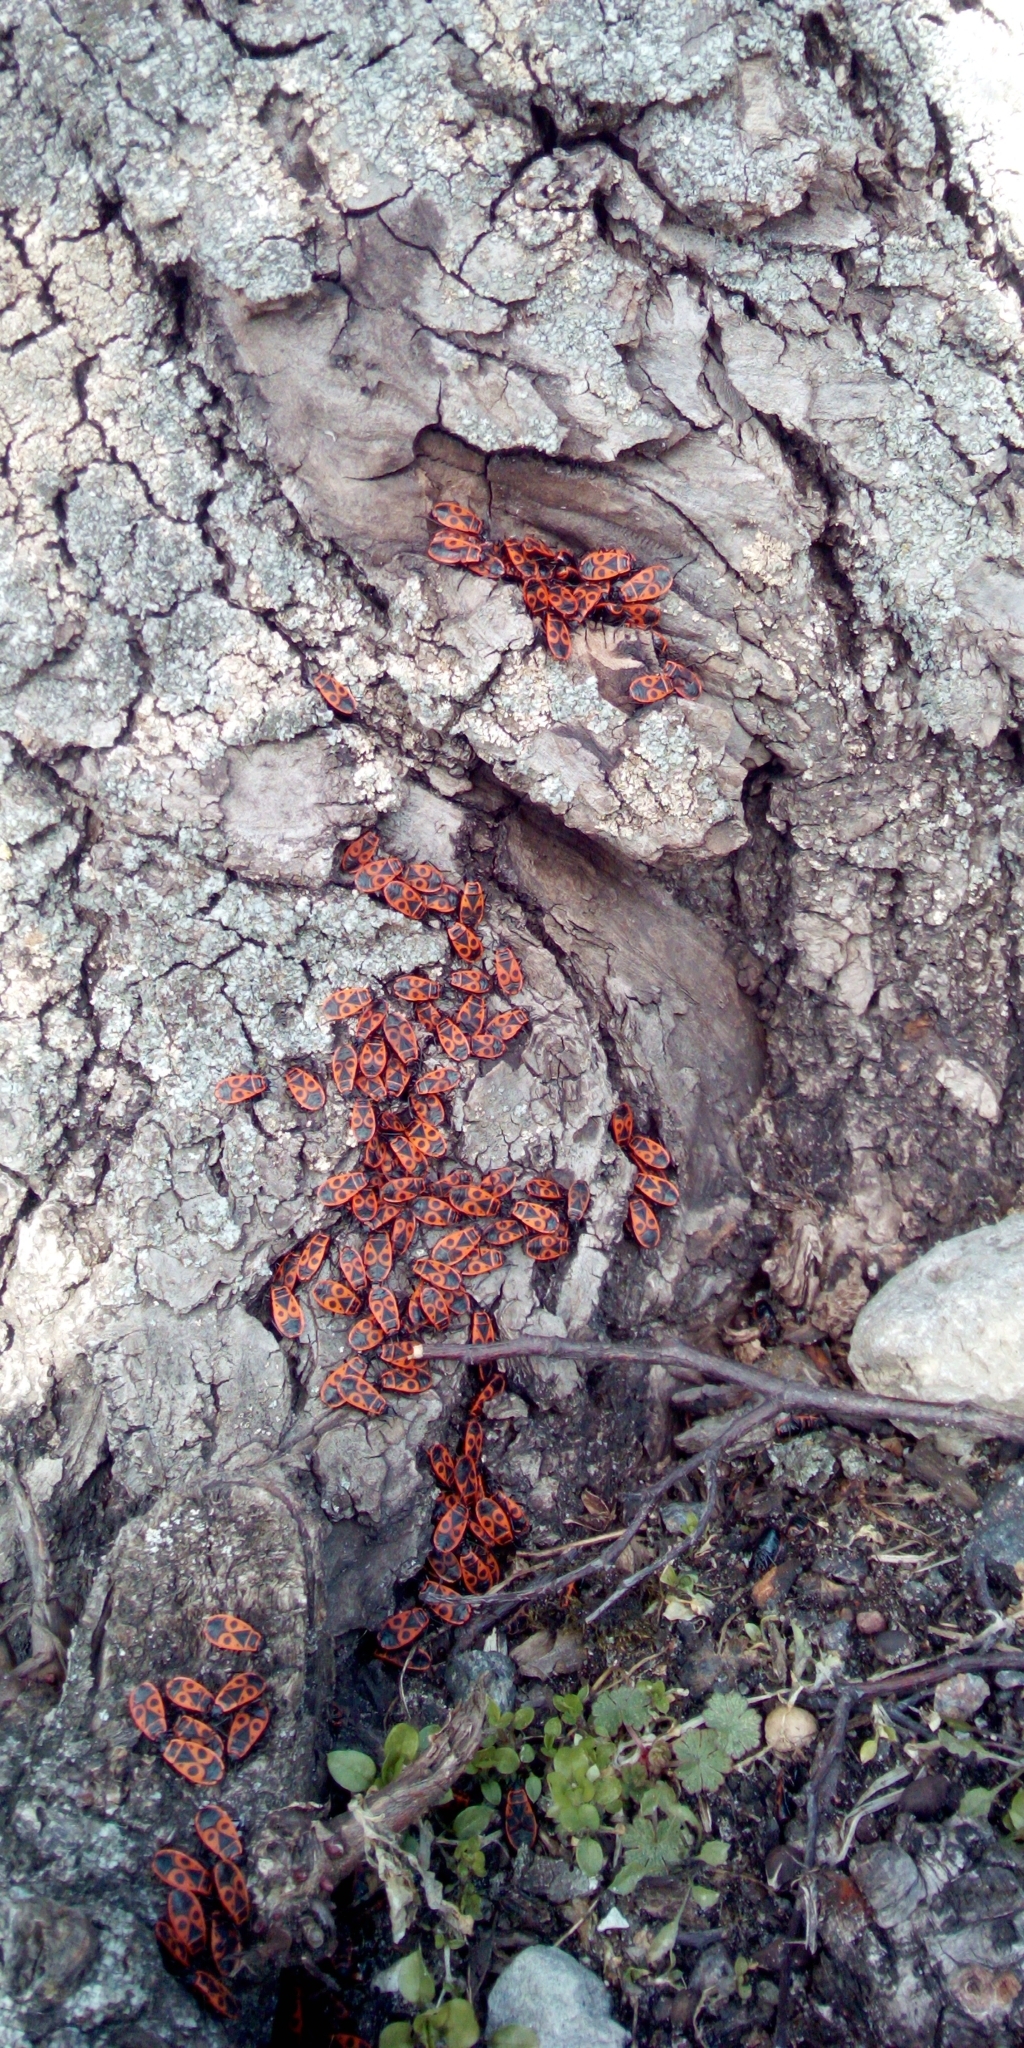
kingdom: Animalia
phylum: Arthropoda
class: Insecta
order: Hemiptera
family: Pyrrhocoridae
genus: Pyrrhocoris
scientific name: Pyrrhocoris apterus
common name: Firebug
